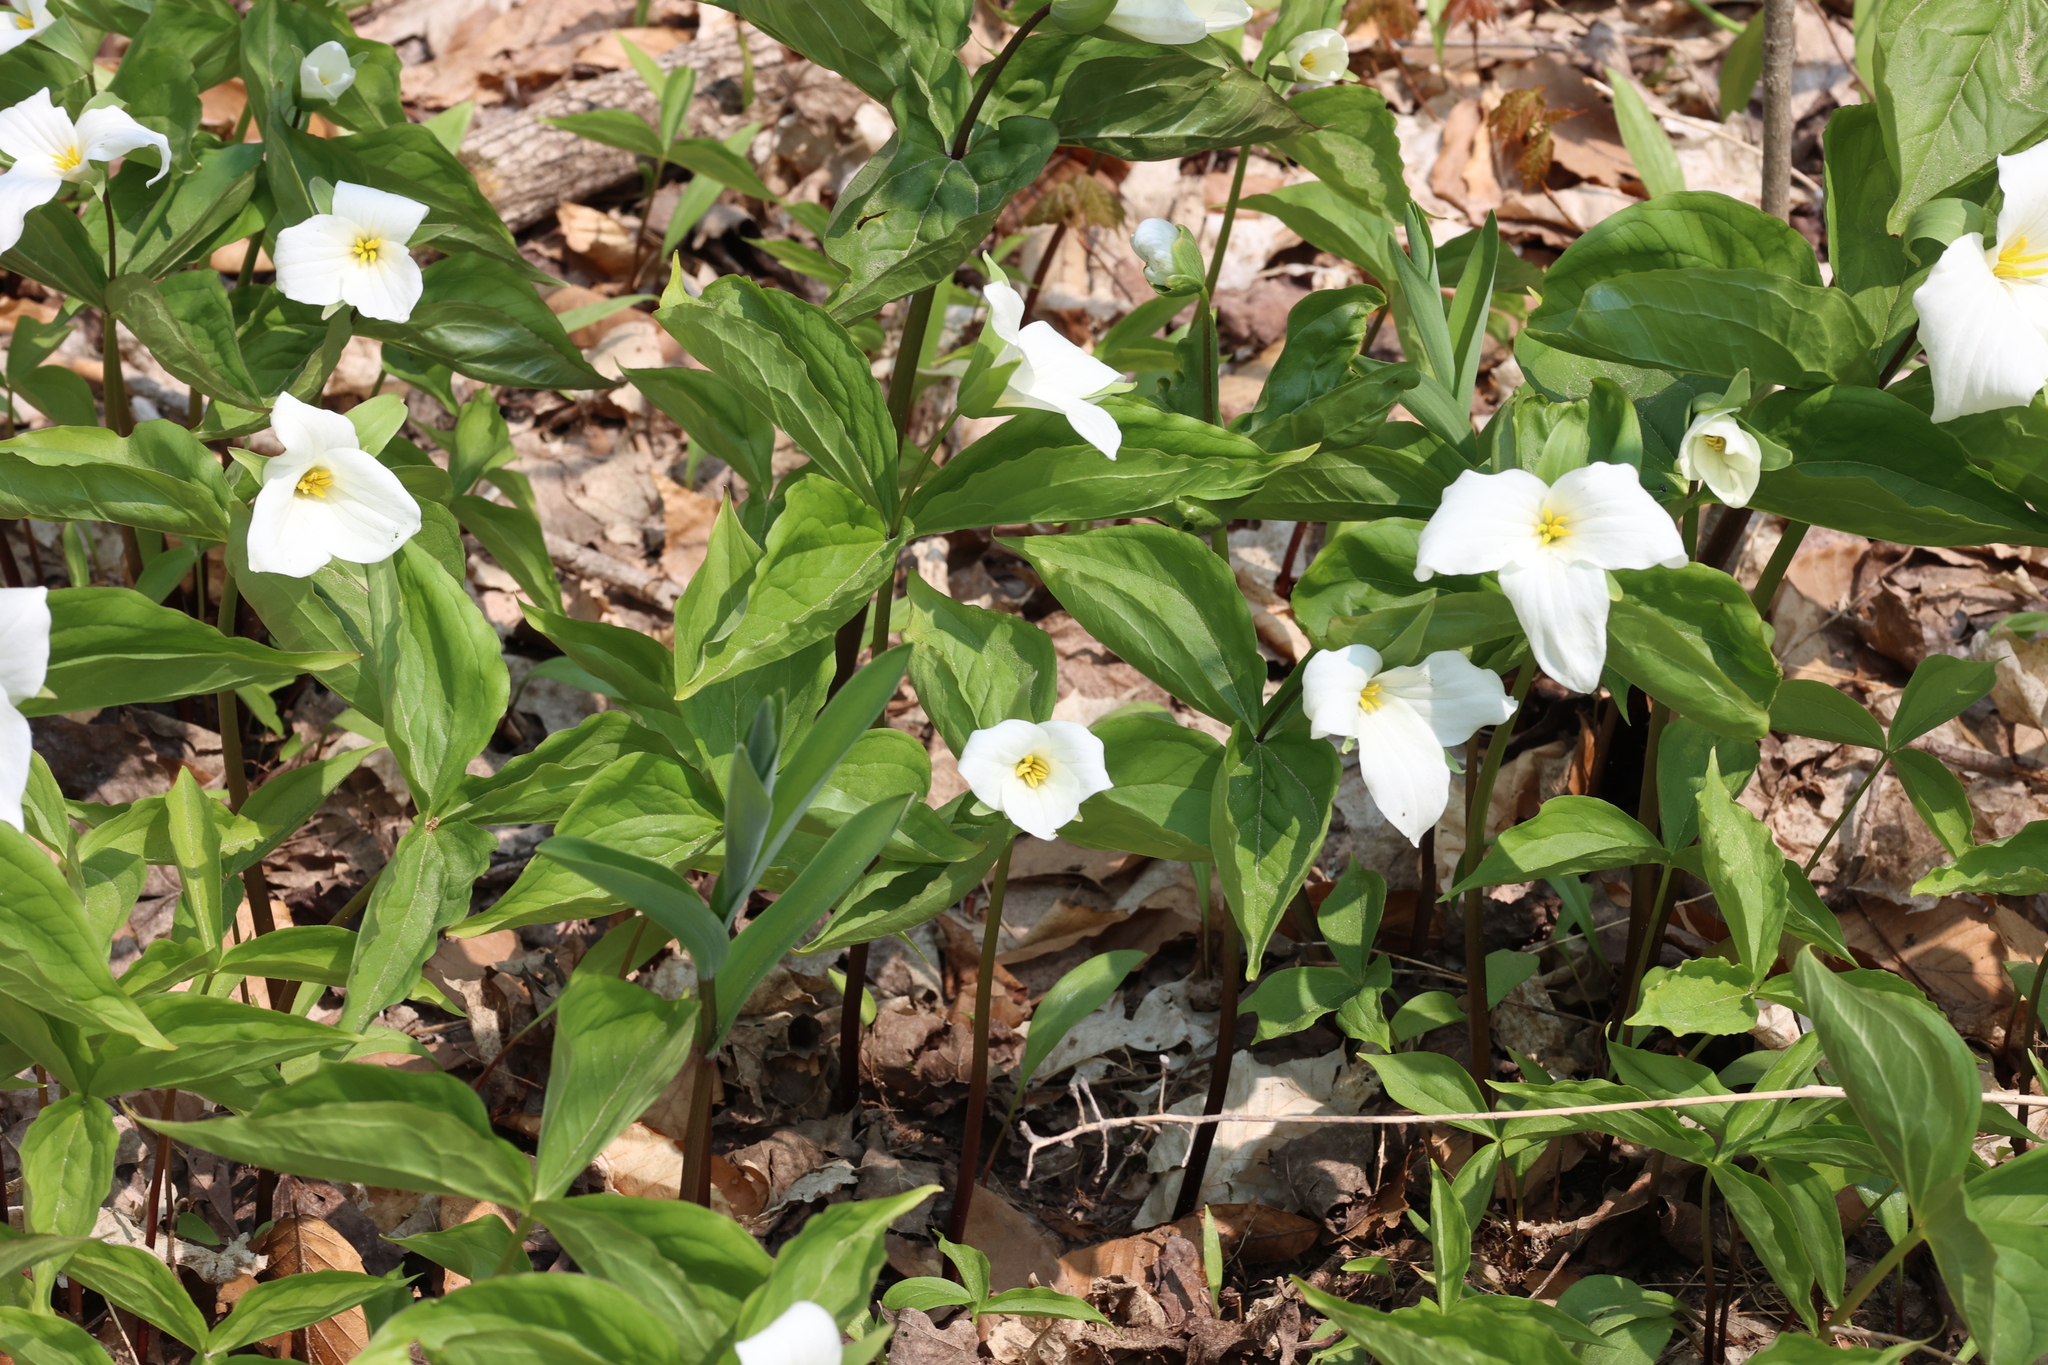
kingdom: Plantae
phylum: Tracheophyta
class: Liliopsida
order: Liliales
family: Melanthiaceae
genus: Trillium
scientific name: Trillium grandiflorum
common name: Great white trillium
